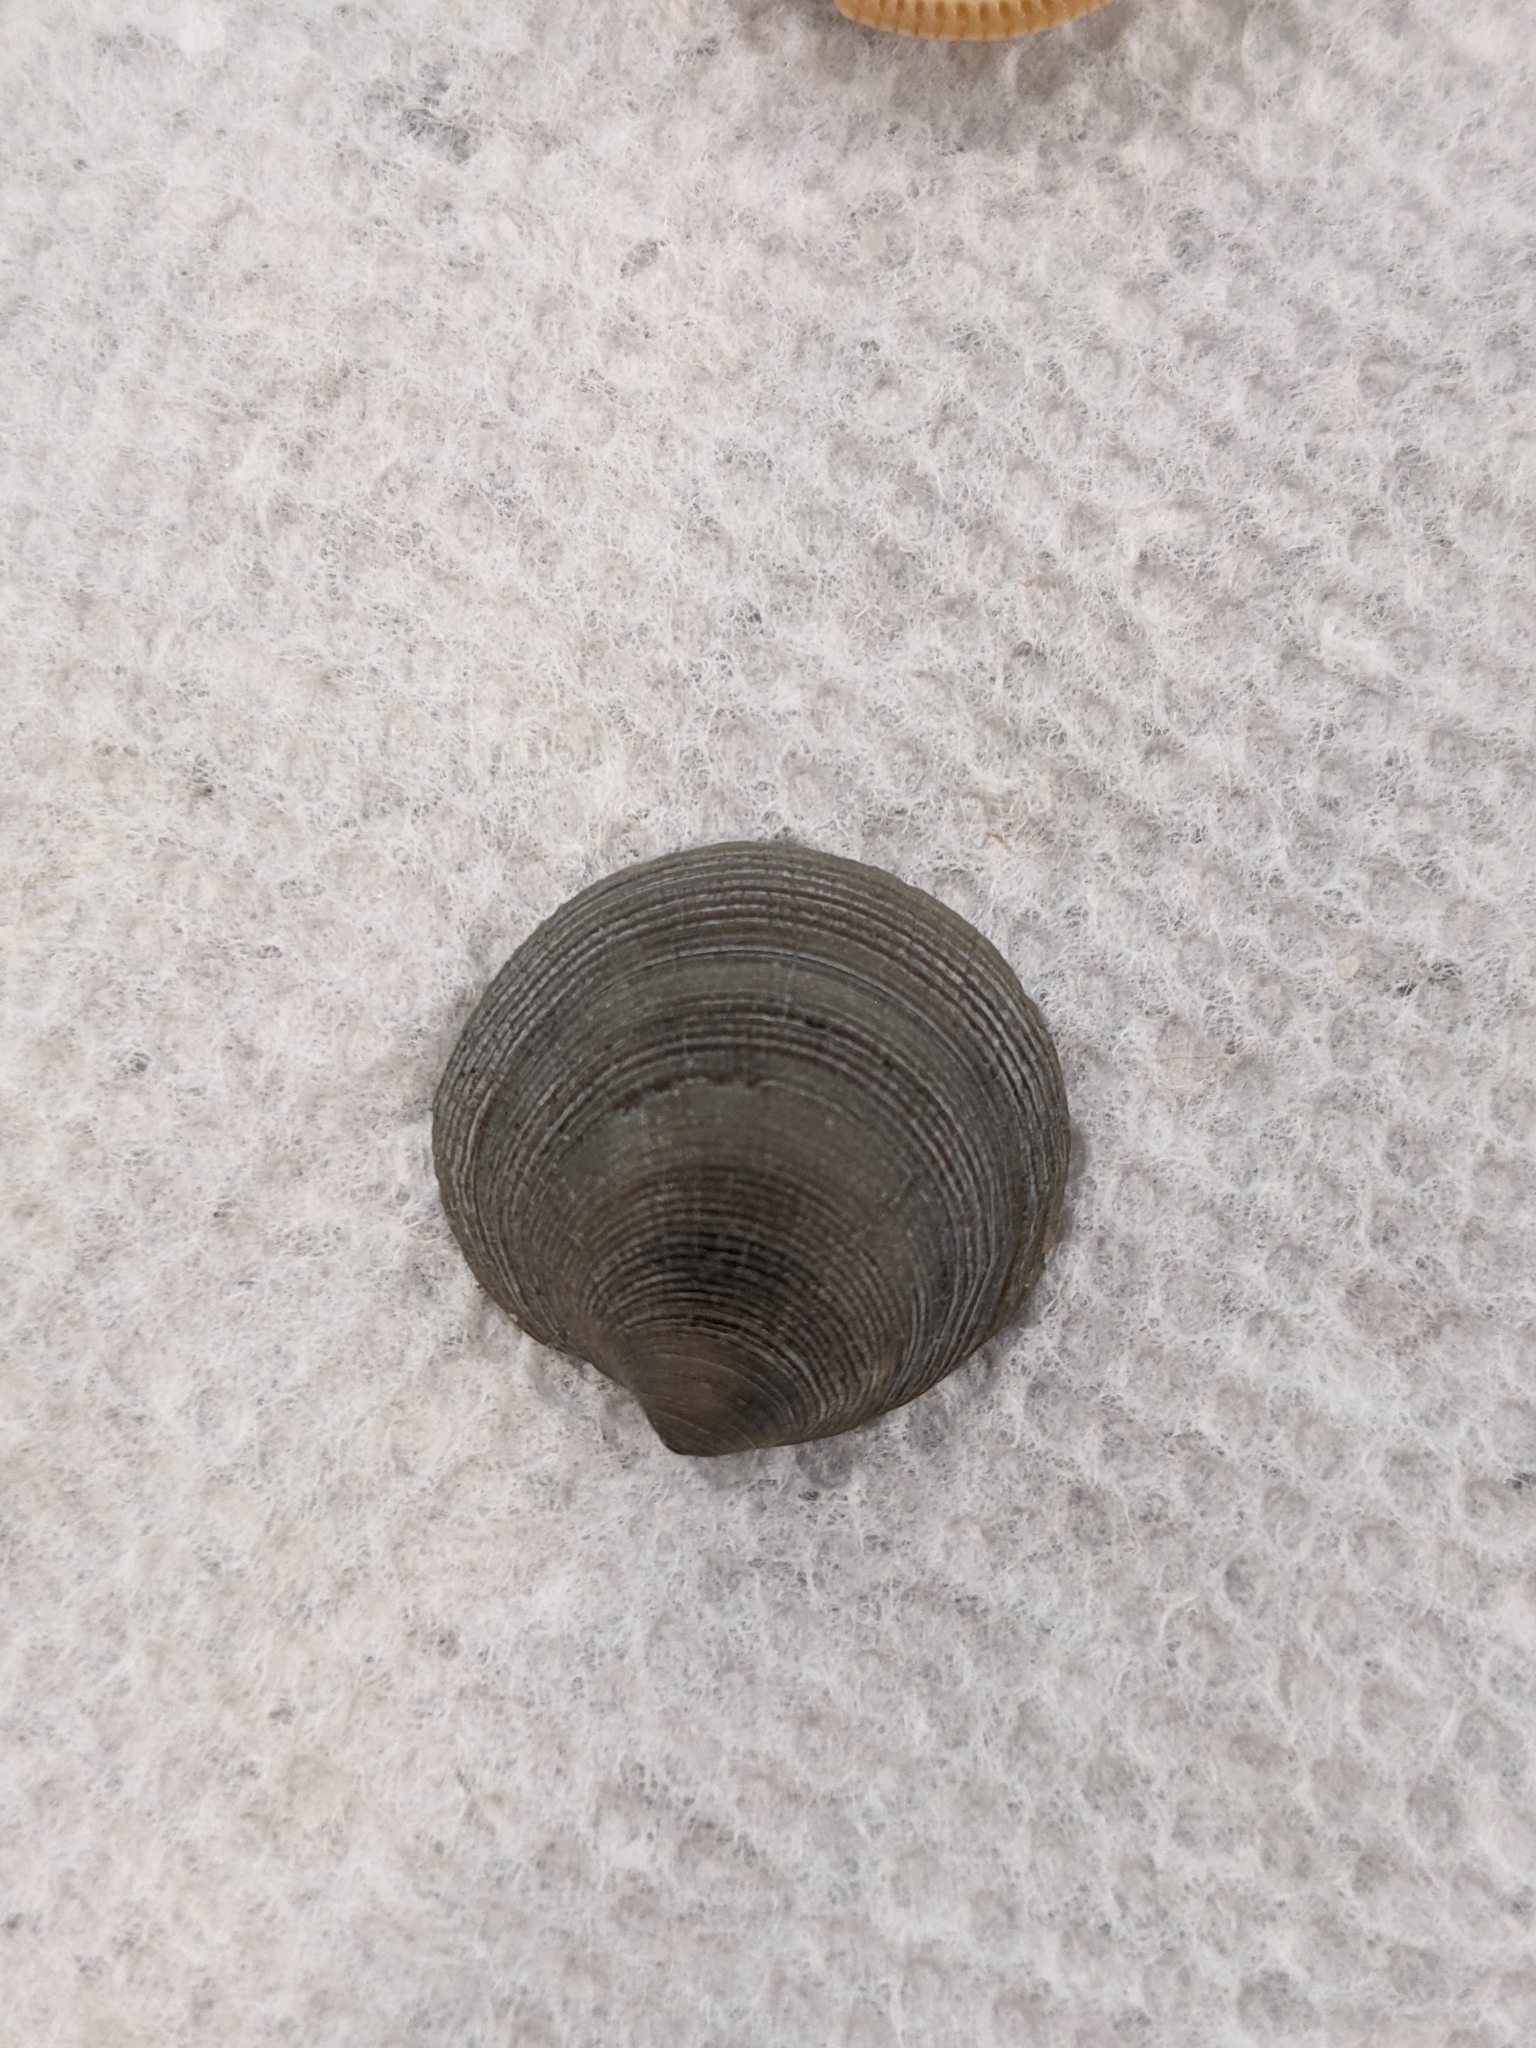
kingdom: Animalia
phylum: Mollusca
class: Bivalvia
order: Lucinida
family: Lucinidae
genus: Callucina
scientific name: Callucina keenae
